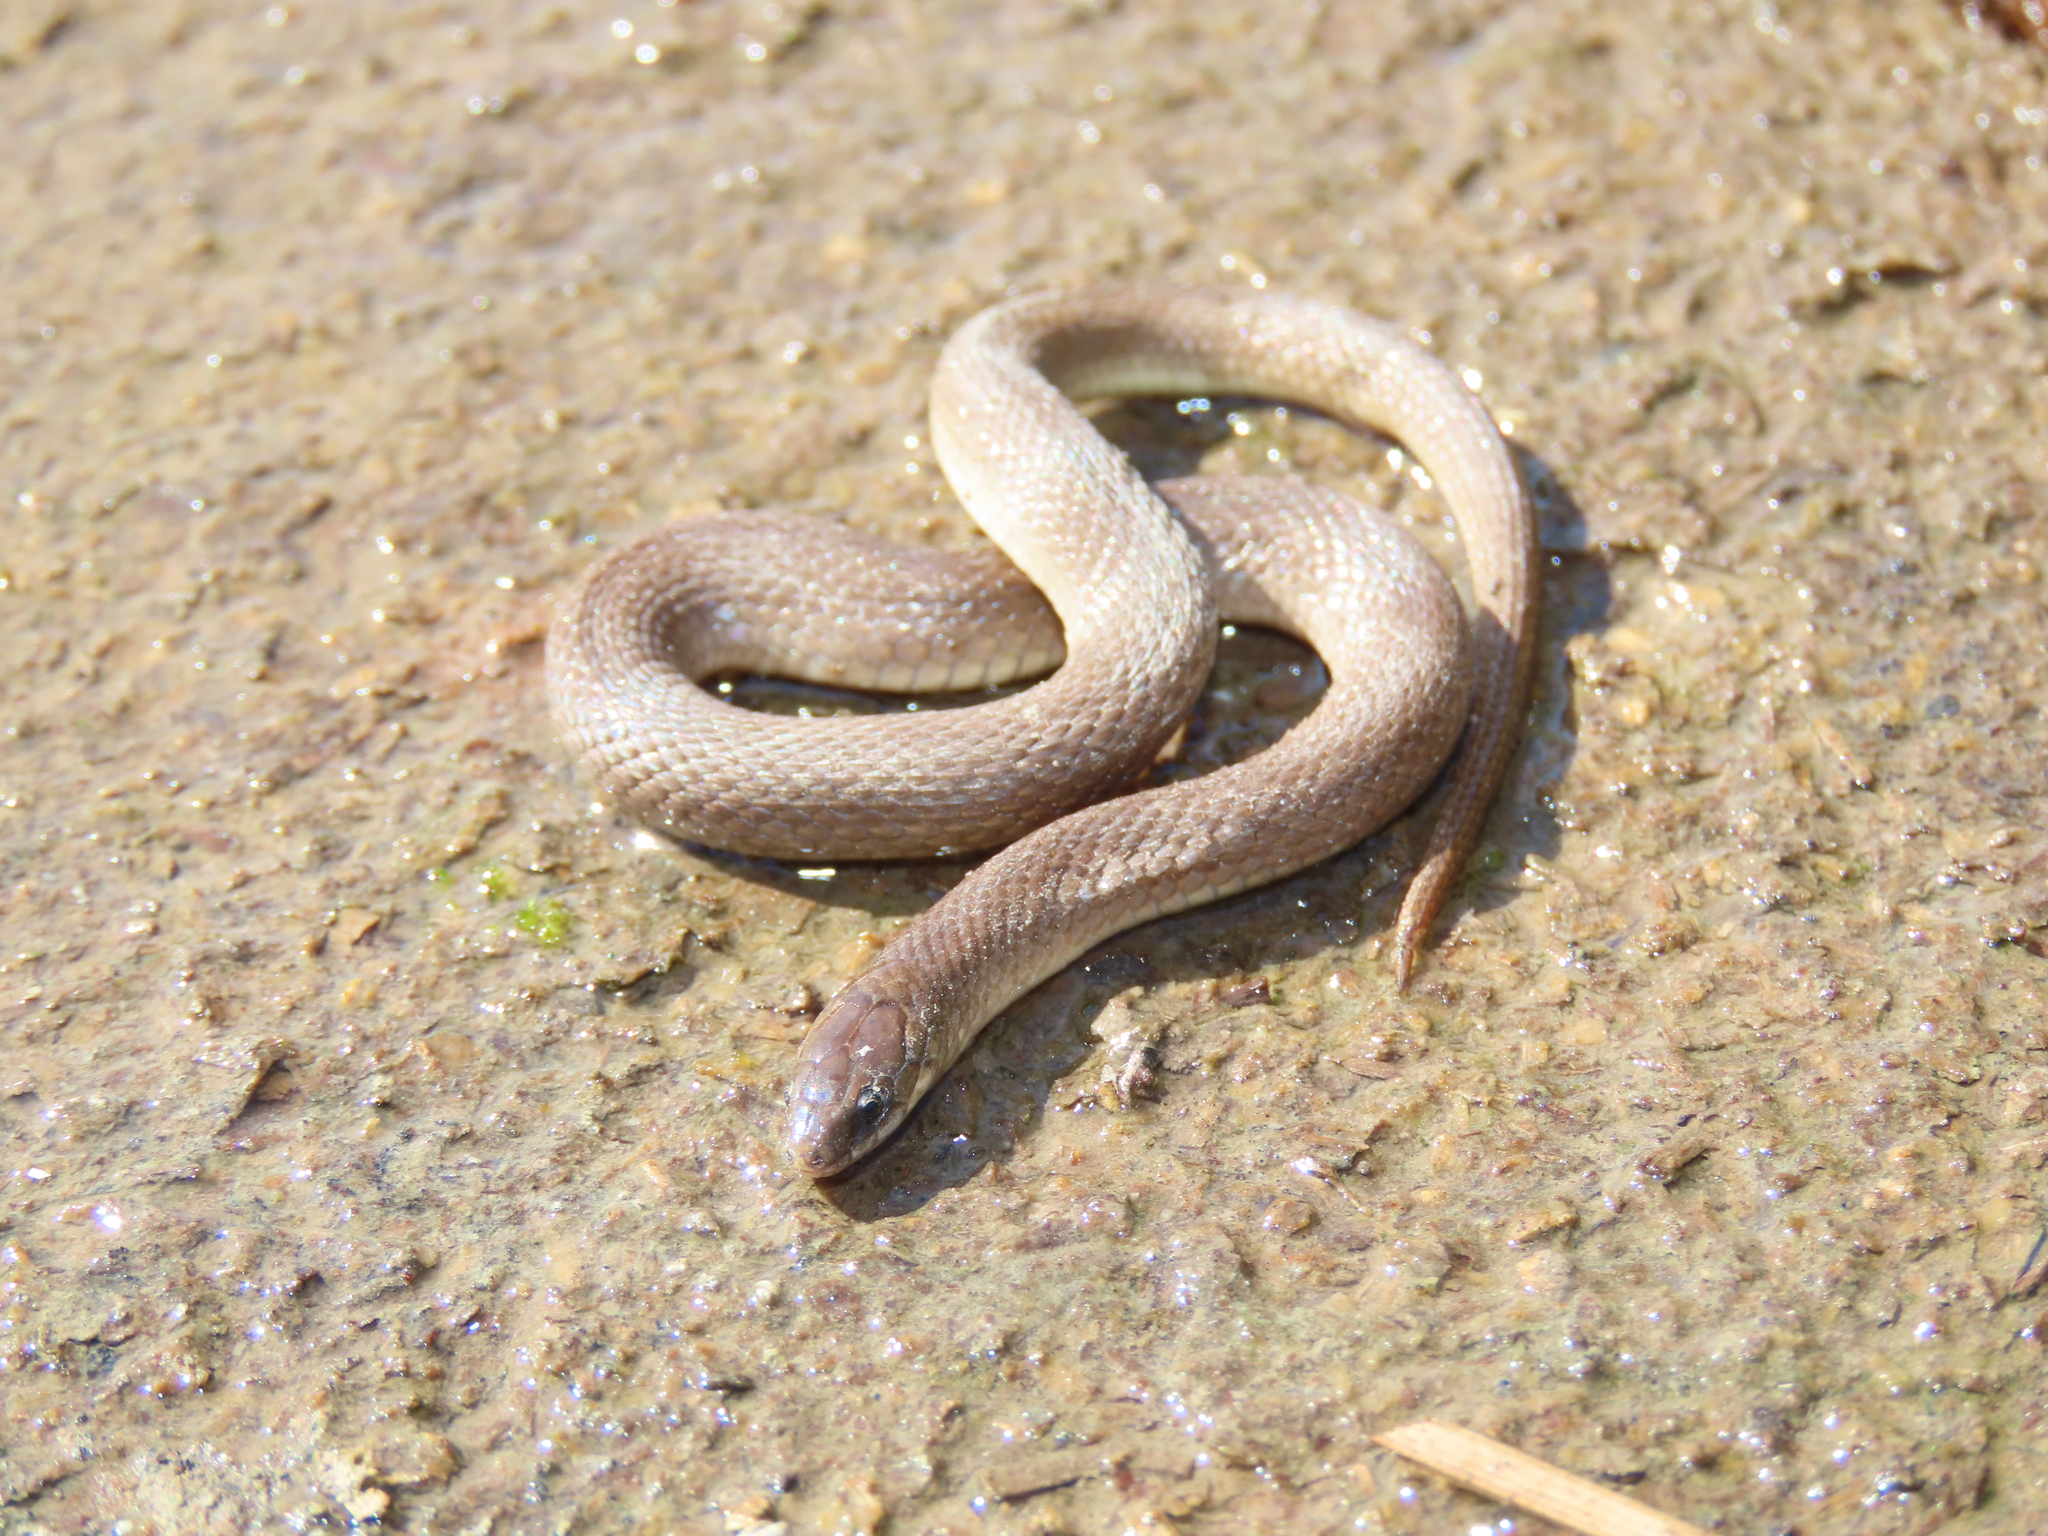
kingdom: Animalia
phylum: Chordata
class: Squamata
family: Colubridae
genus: Haldea
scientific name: Haldea striatula
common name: Rough earth snake
